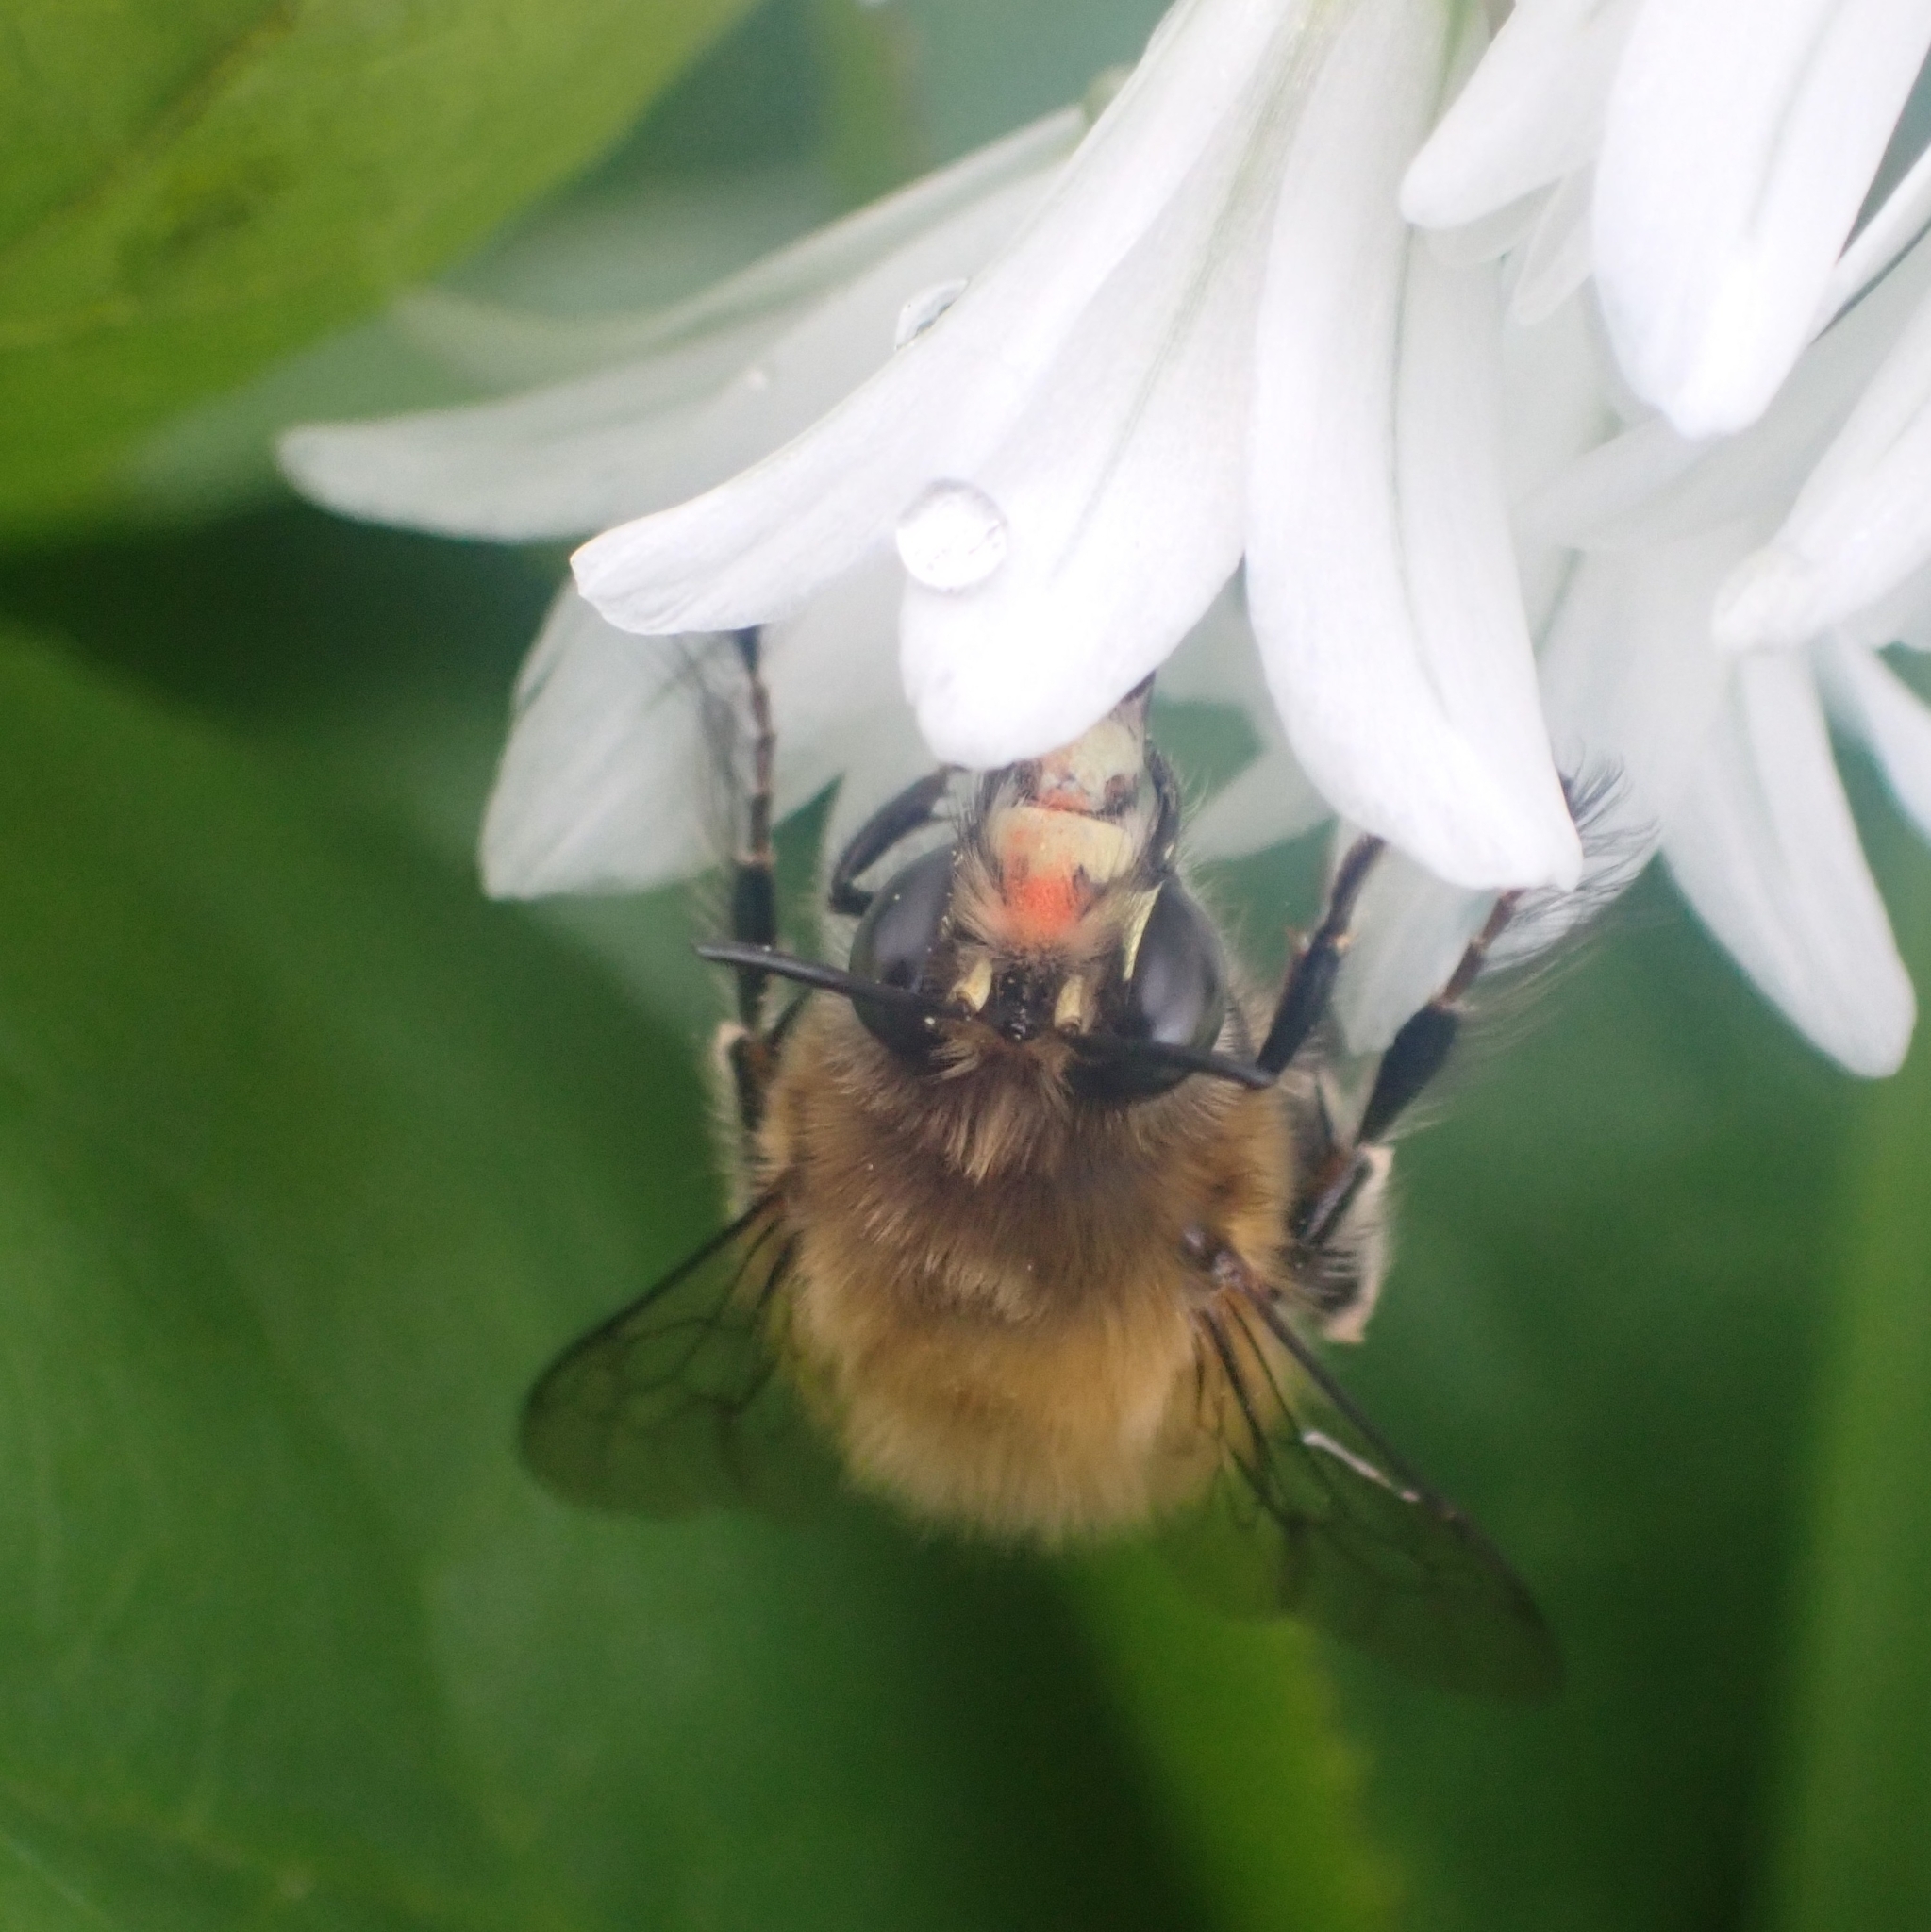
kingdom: Animalia
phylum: Arthropoda
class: Insecta
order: Hymenoptera
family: Apidae
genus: Anthophora
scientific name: Anthophora plumipes
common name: Hairy-footed flower bee
